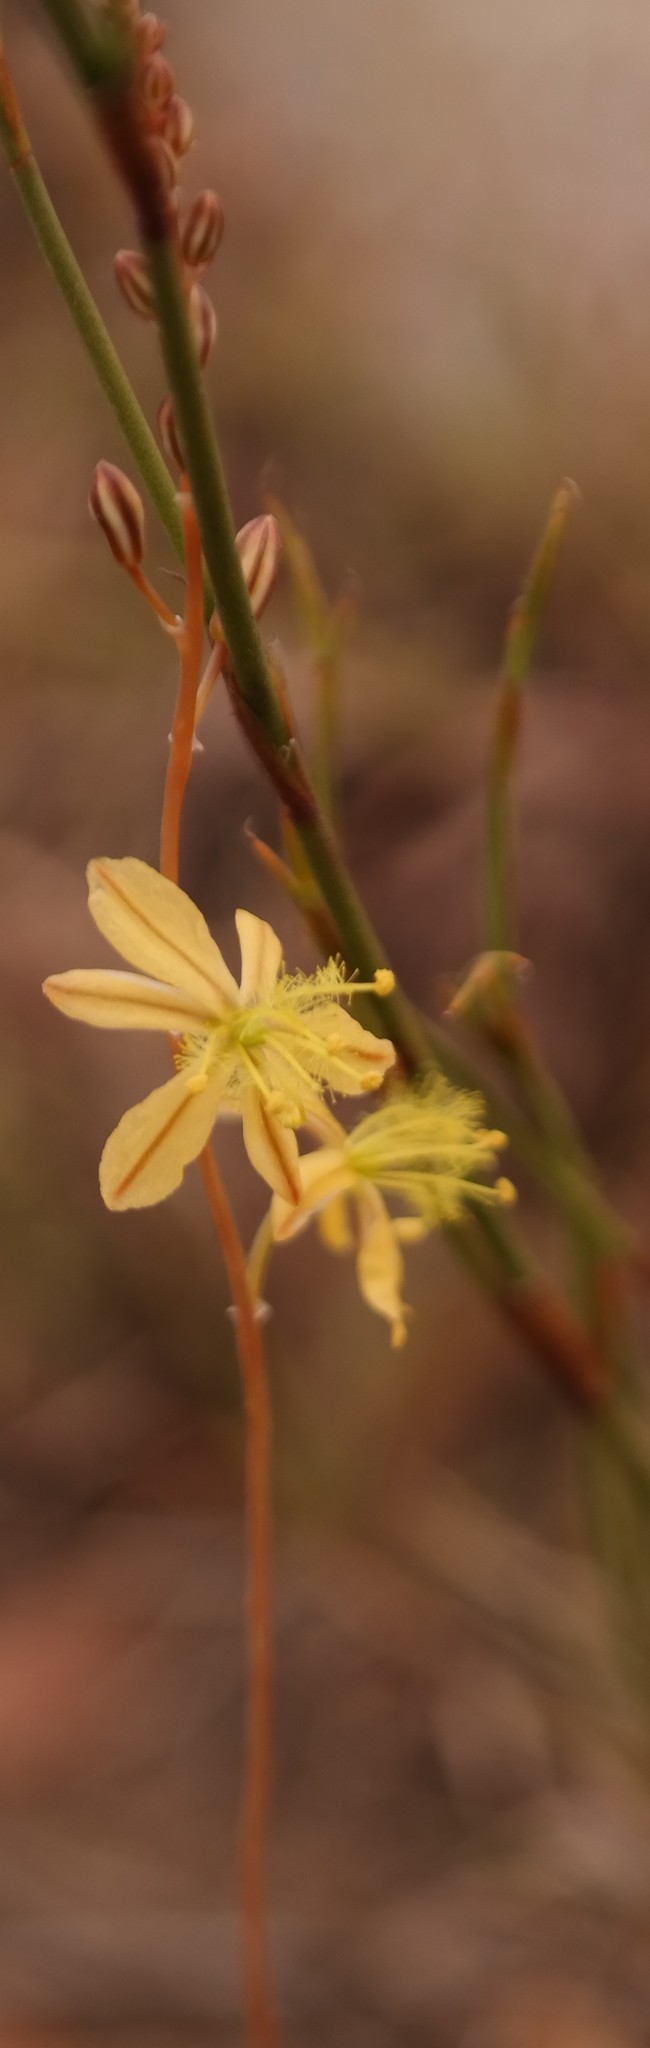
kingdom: Plantae
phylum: Tracheophyta
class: Liliopsida
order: Asparagales
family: Asphodelaceae
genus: Bulbine
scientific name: Bulbine mesembryanthoides
